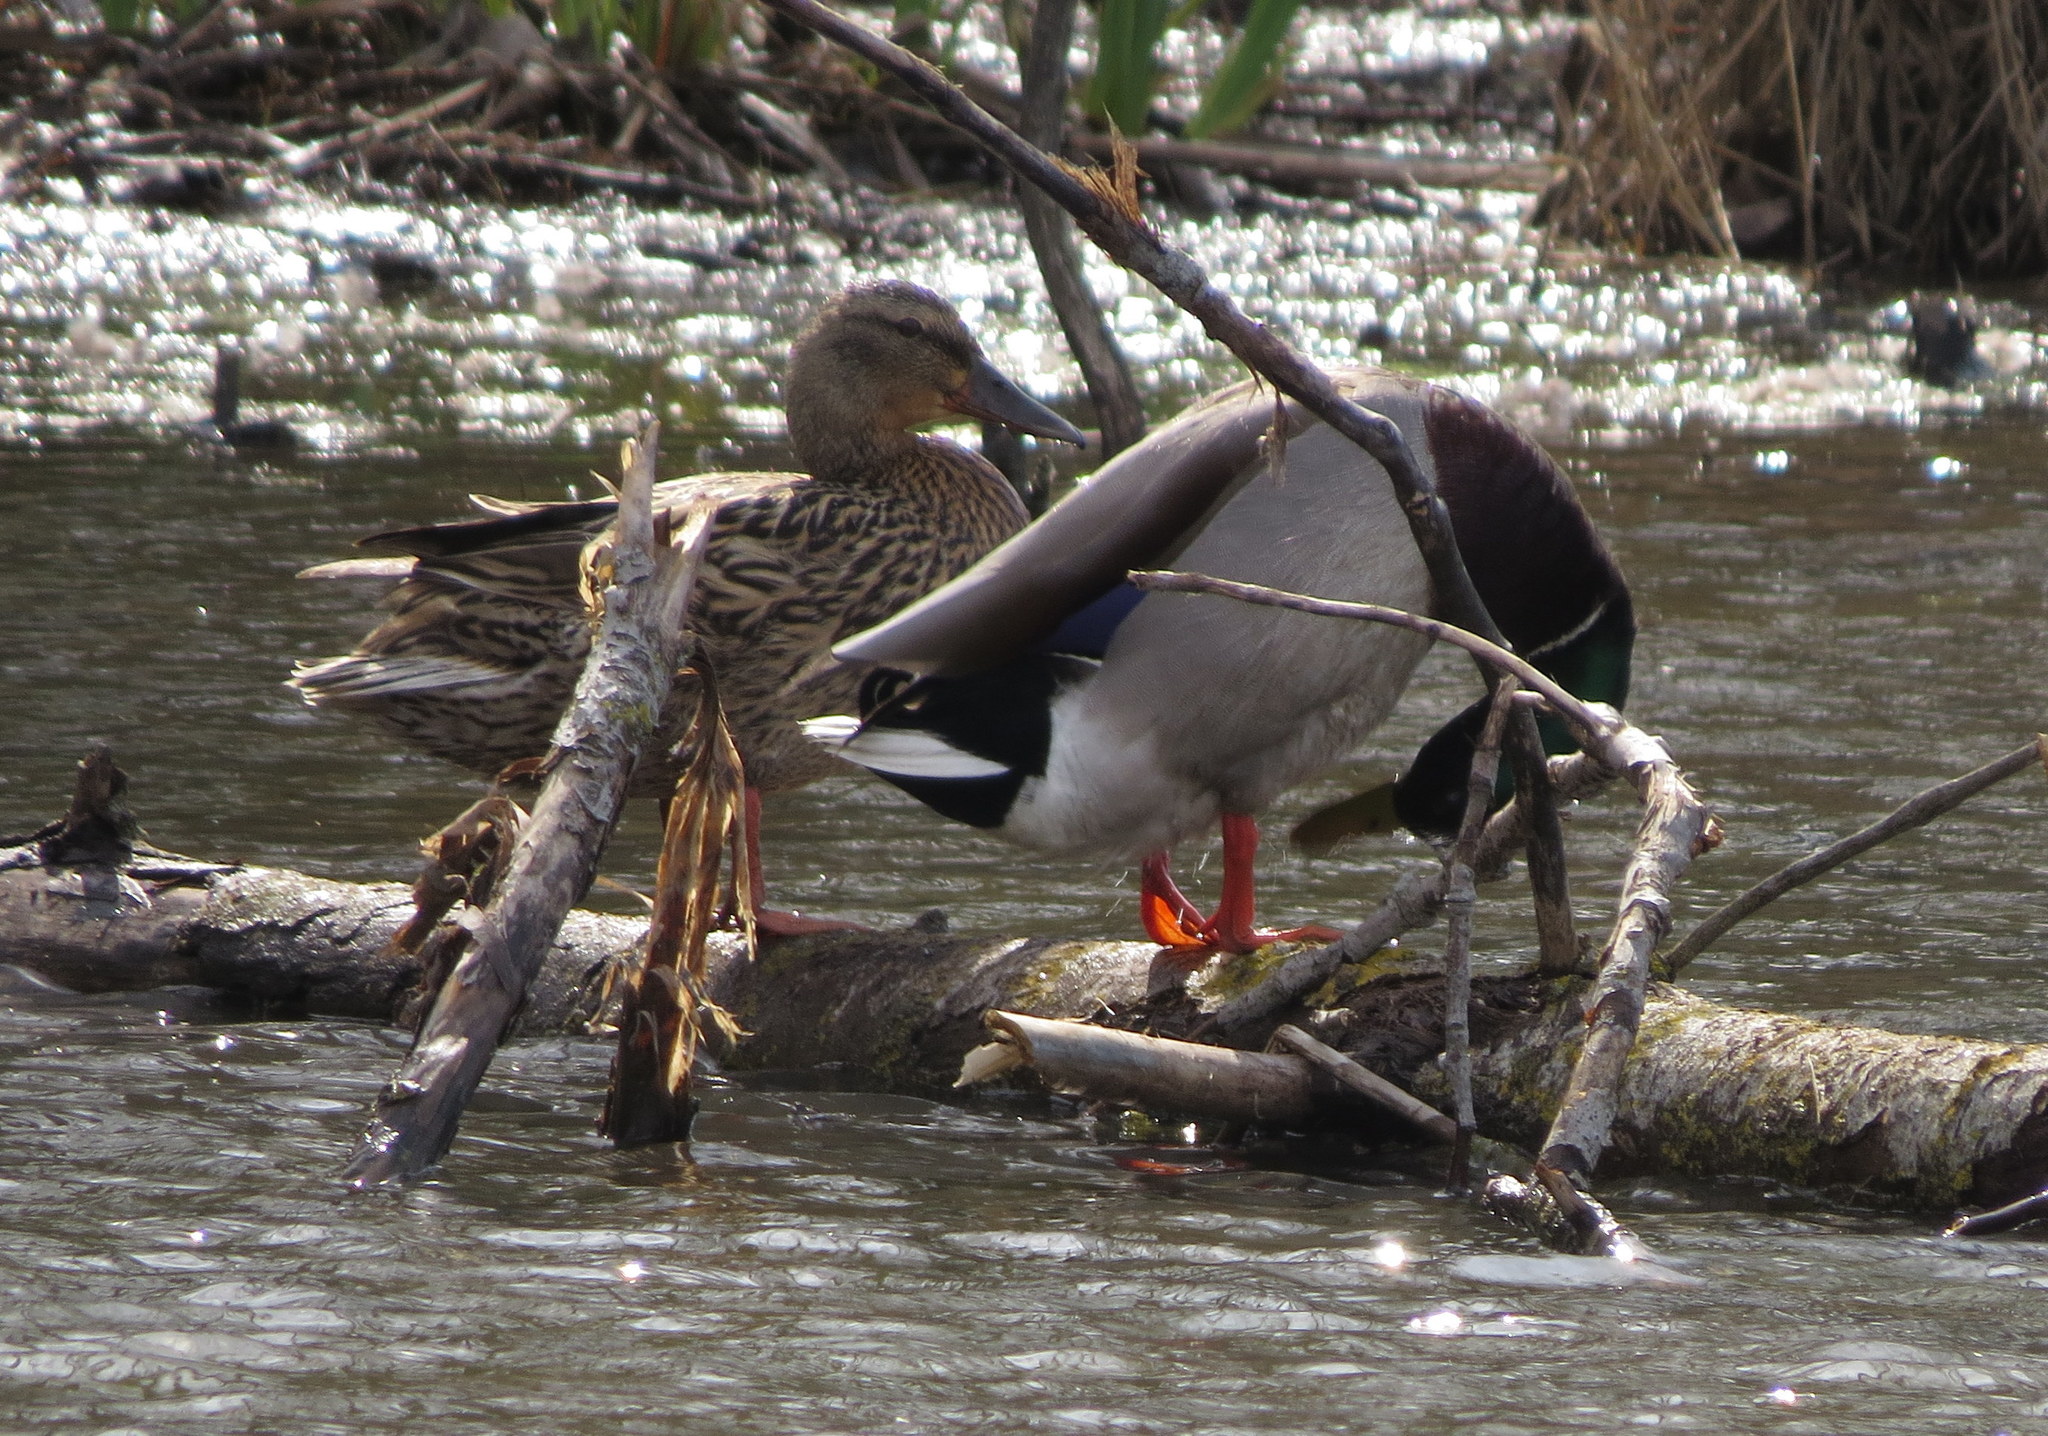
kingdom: Animalia
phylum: Chordata
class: Aves
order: Anseriformes
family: Anatidae
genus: Anas
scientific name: Anas platyrhynchos
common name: Mallard
